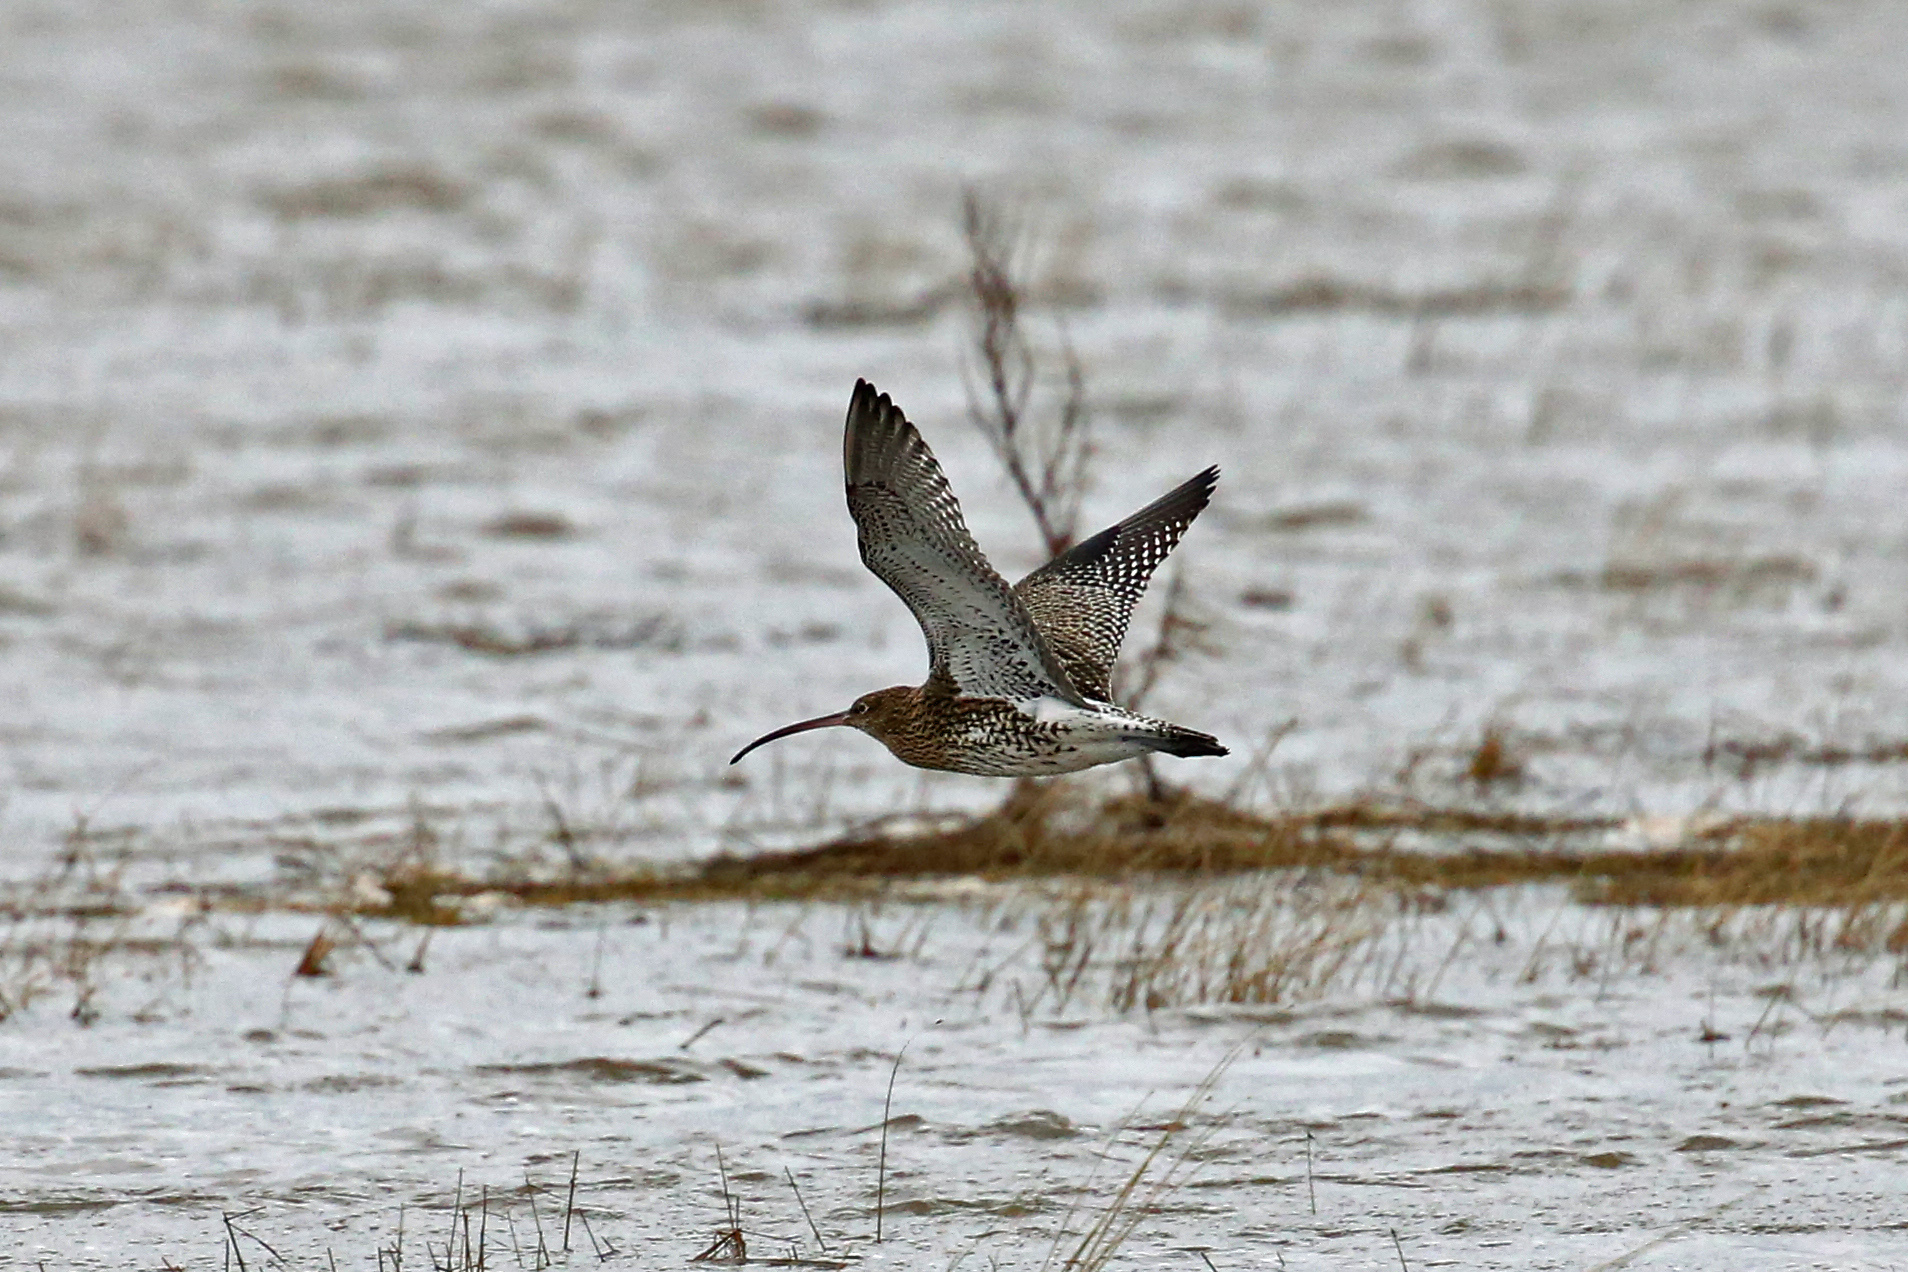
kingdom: Animalia
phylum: Chordata
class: Aves
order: Charadriiformes
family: Scolopacidae
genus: Numenius
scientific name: Numenius arquata
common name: Eurasian curlew
